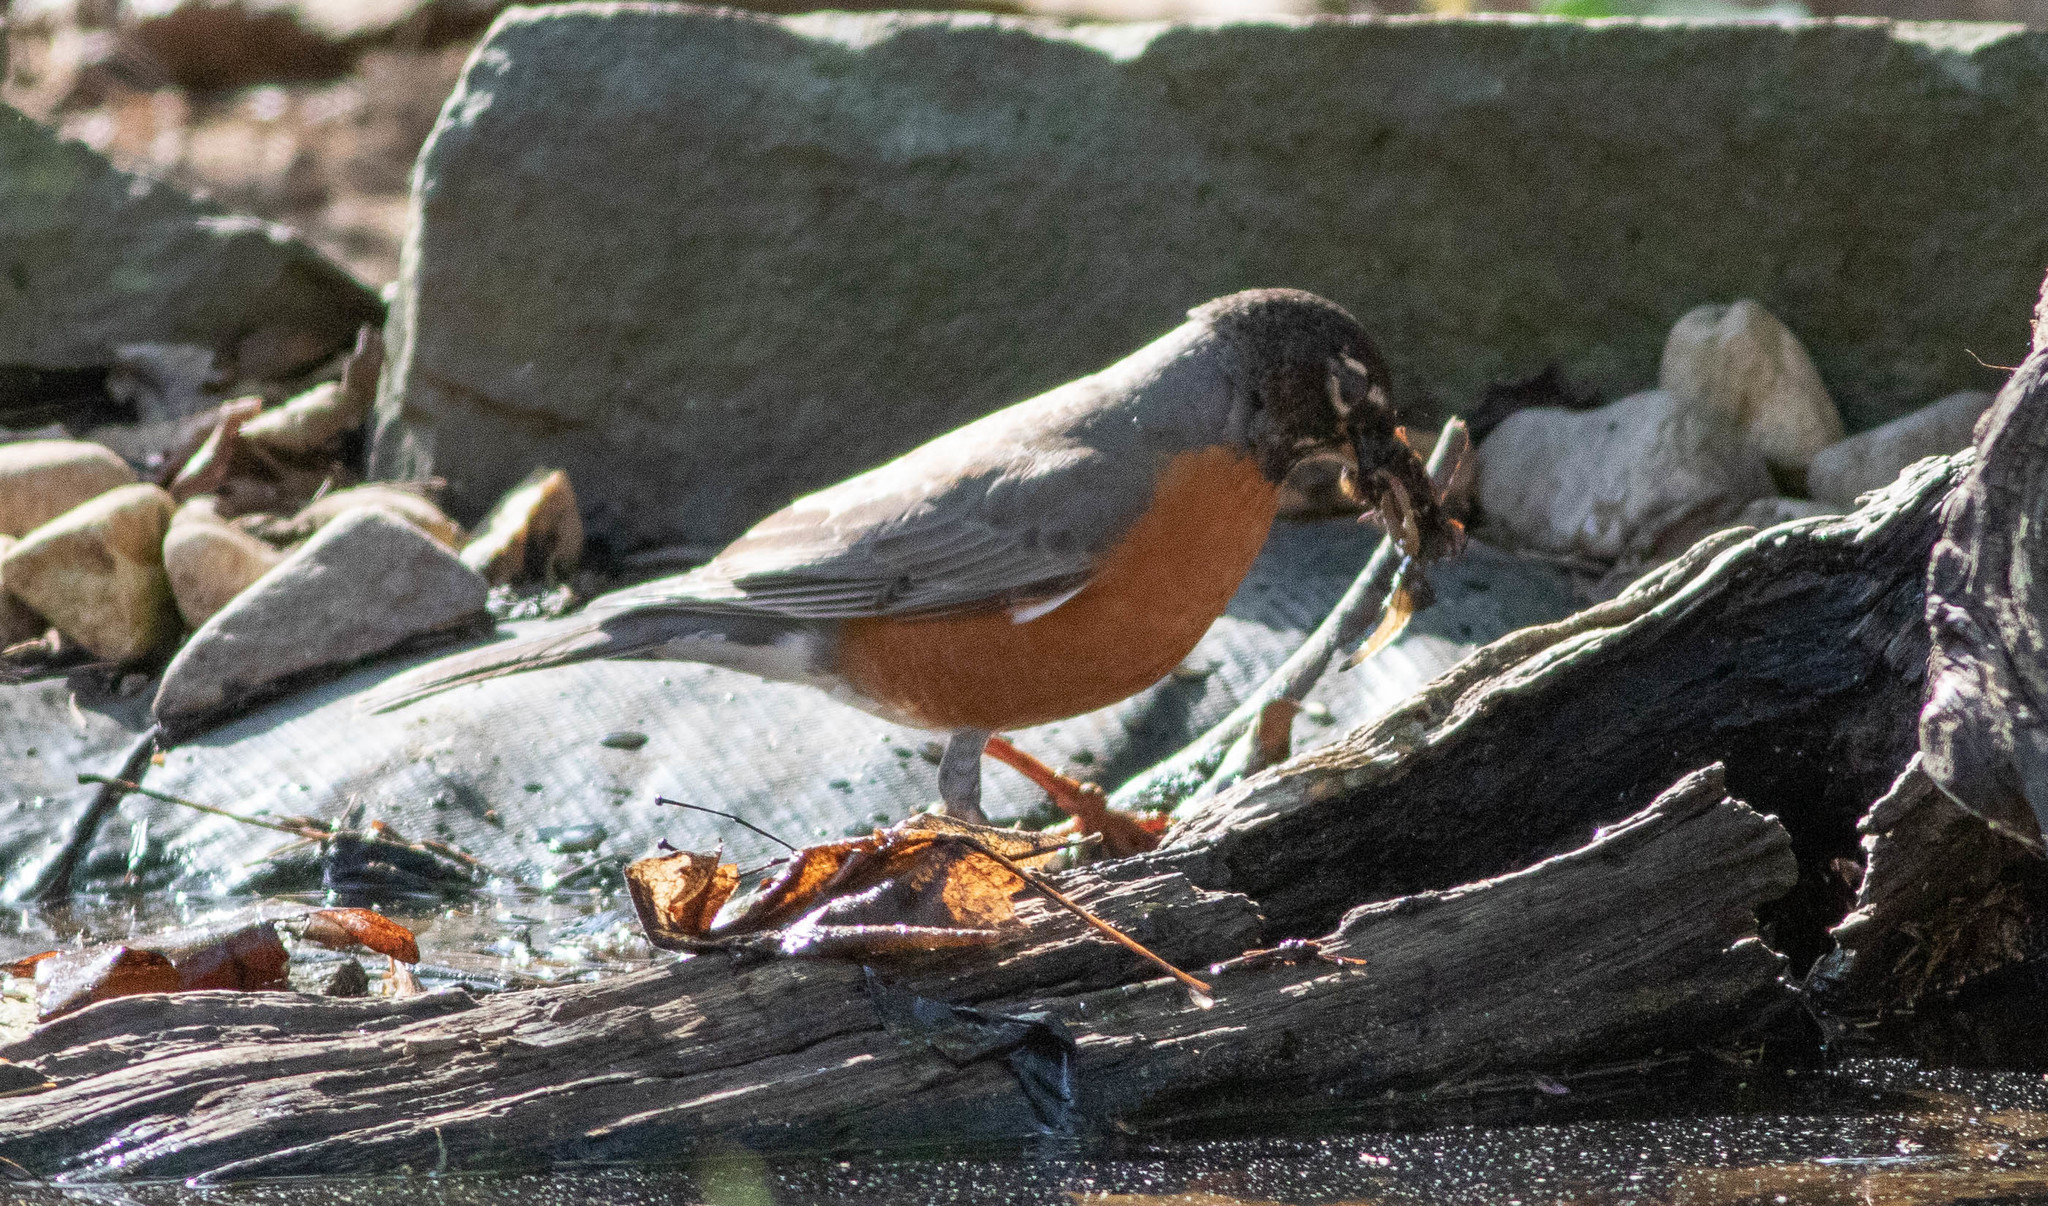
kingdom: Animalia
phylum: Chordata
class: Aves
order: Passeriformes
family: Turdidae
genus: Turdus
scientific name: Turdus migratorius
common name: American robin
